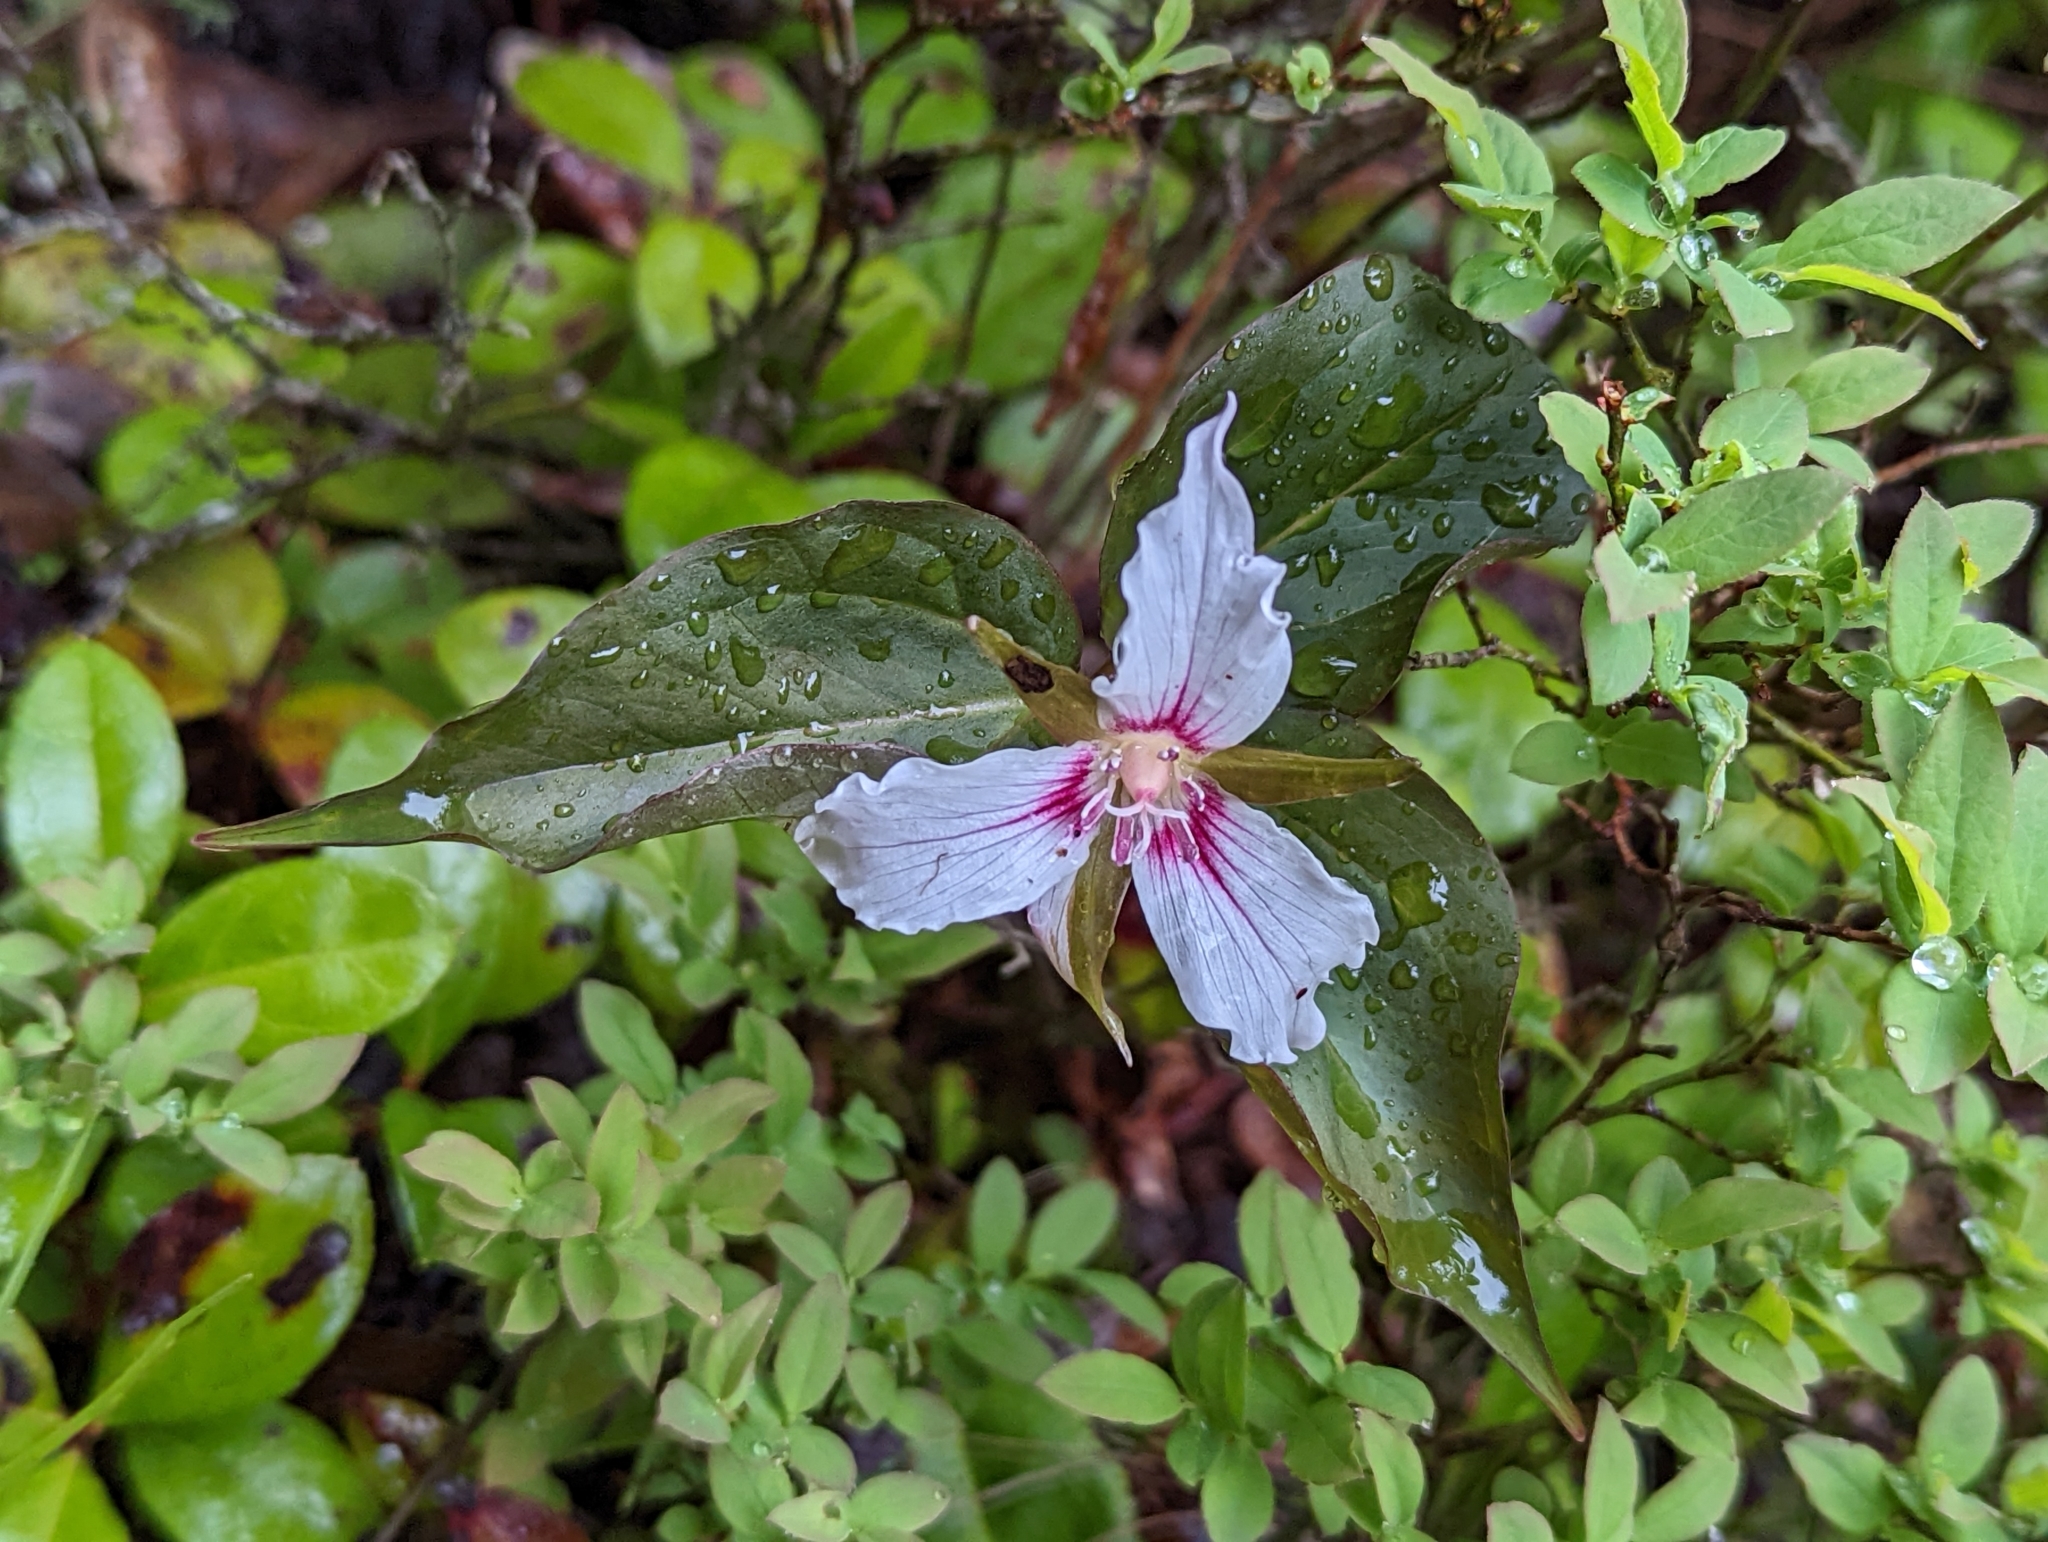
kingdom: Plantae
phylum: Tracheophyta
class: Liliopsida
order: Liliales
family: Melanthiaceae
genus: Trillium
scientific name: Trillium undulatum
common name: Paint trillium
